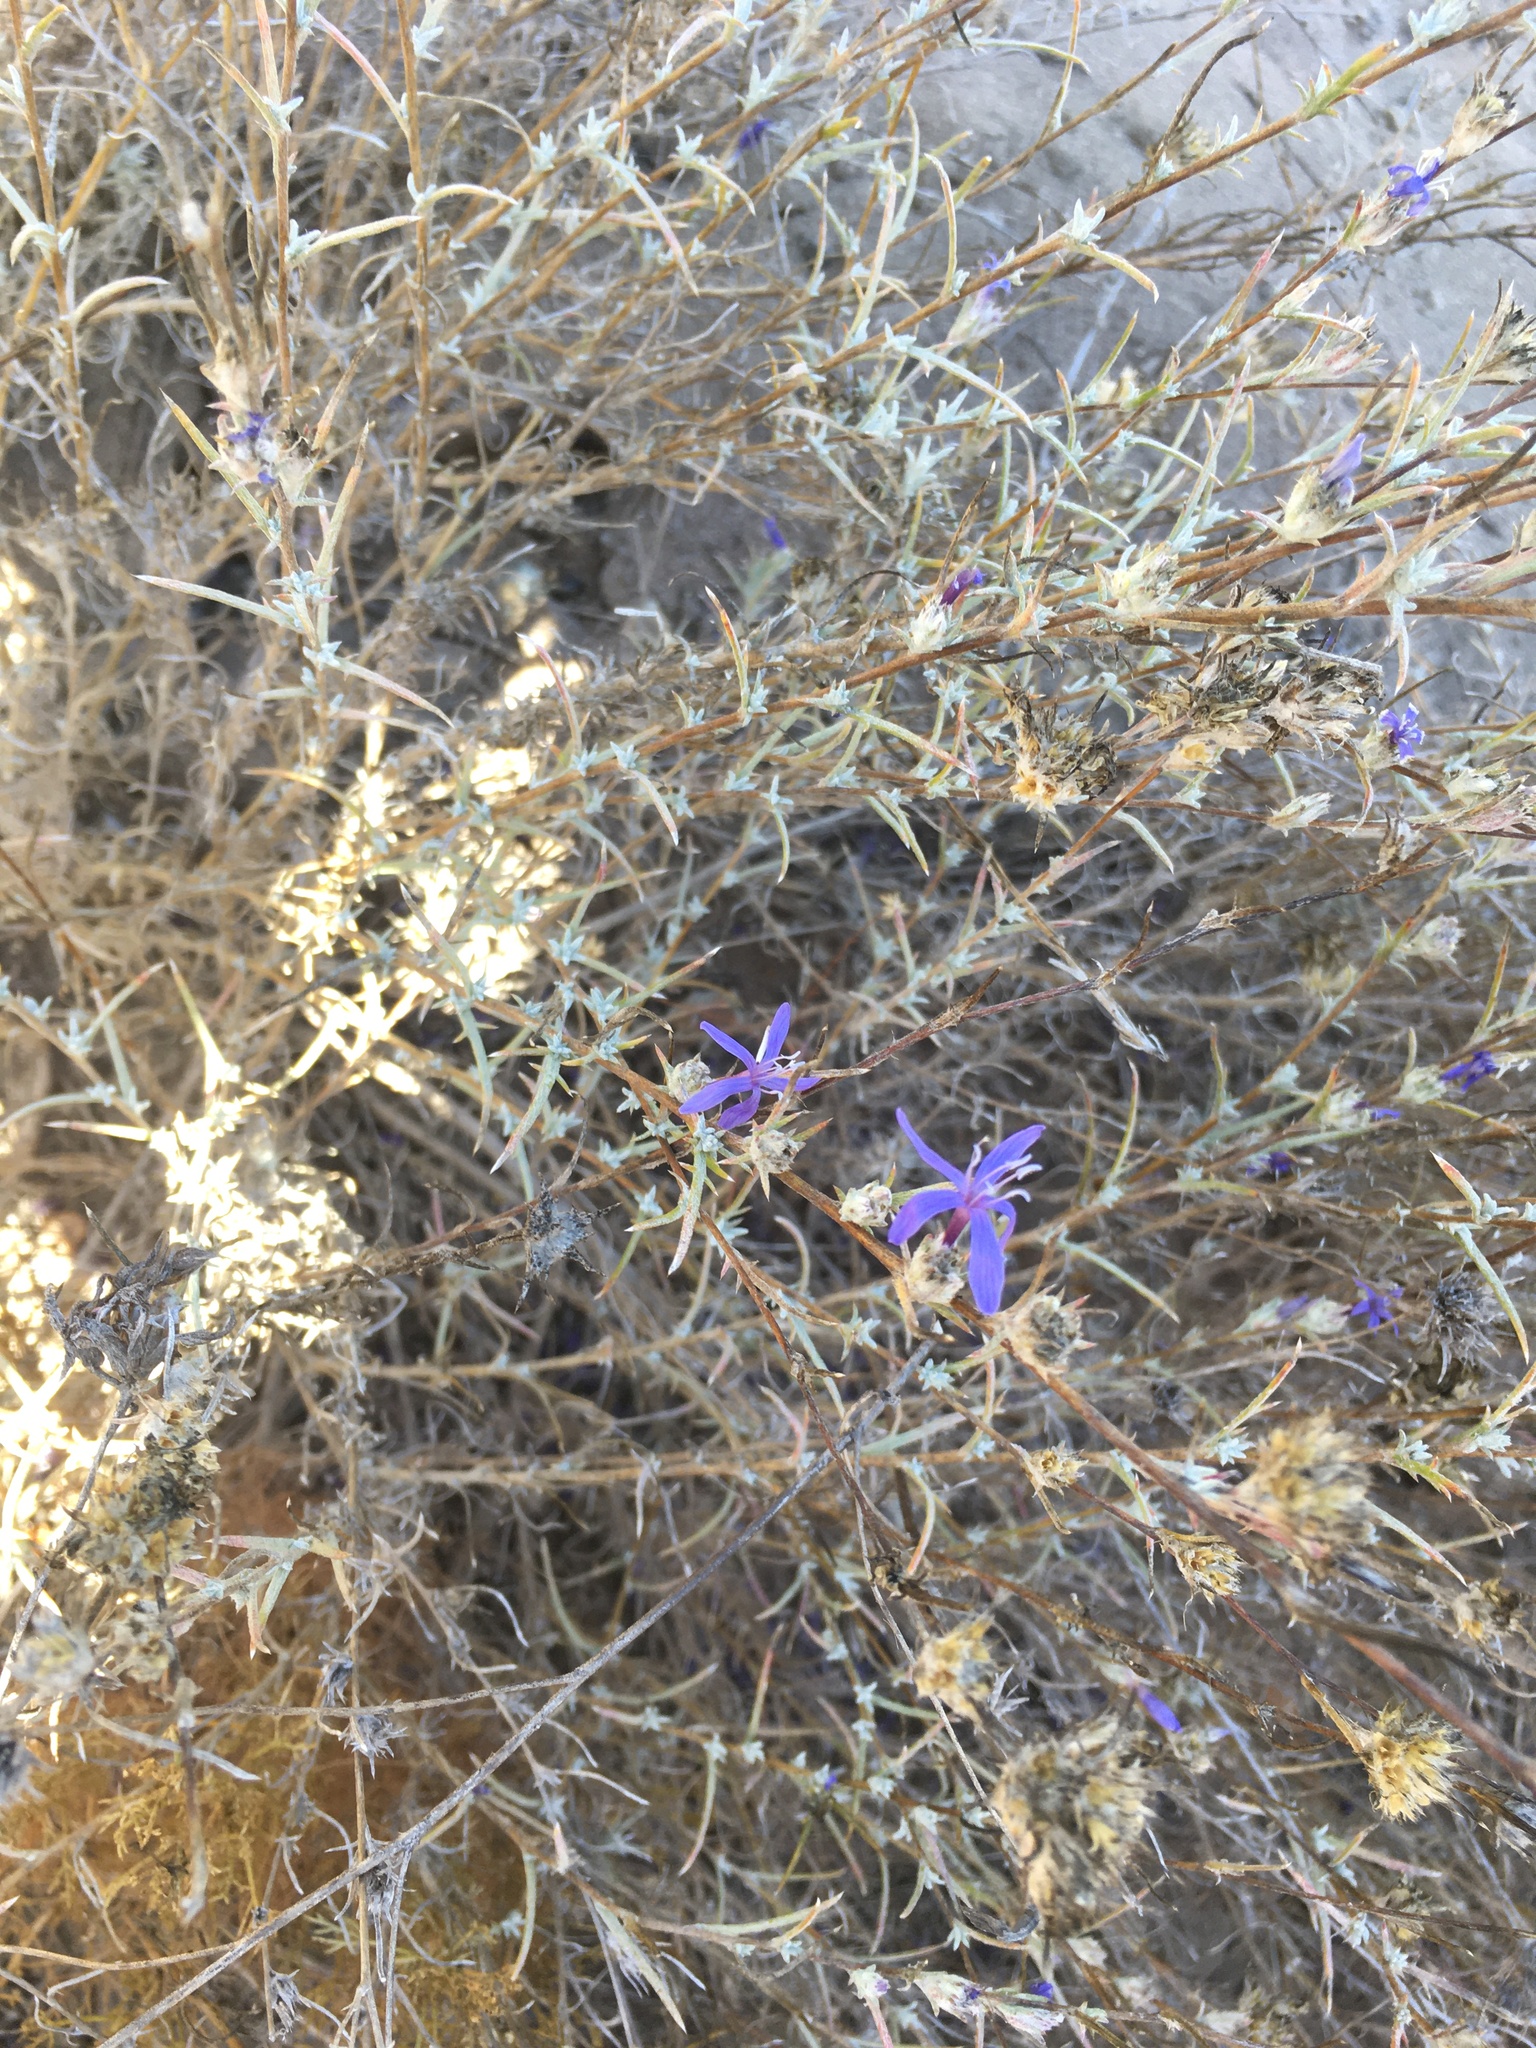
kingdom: Plantae
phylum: Tracheophyta
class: Magnoliopsida
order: Ericales
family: Polemoniaceae
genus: Eriastrum
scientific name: Eriastrum densifolium
